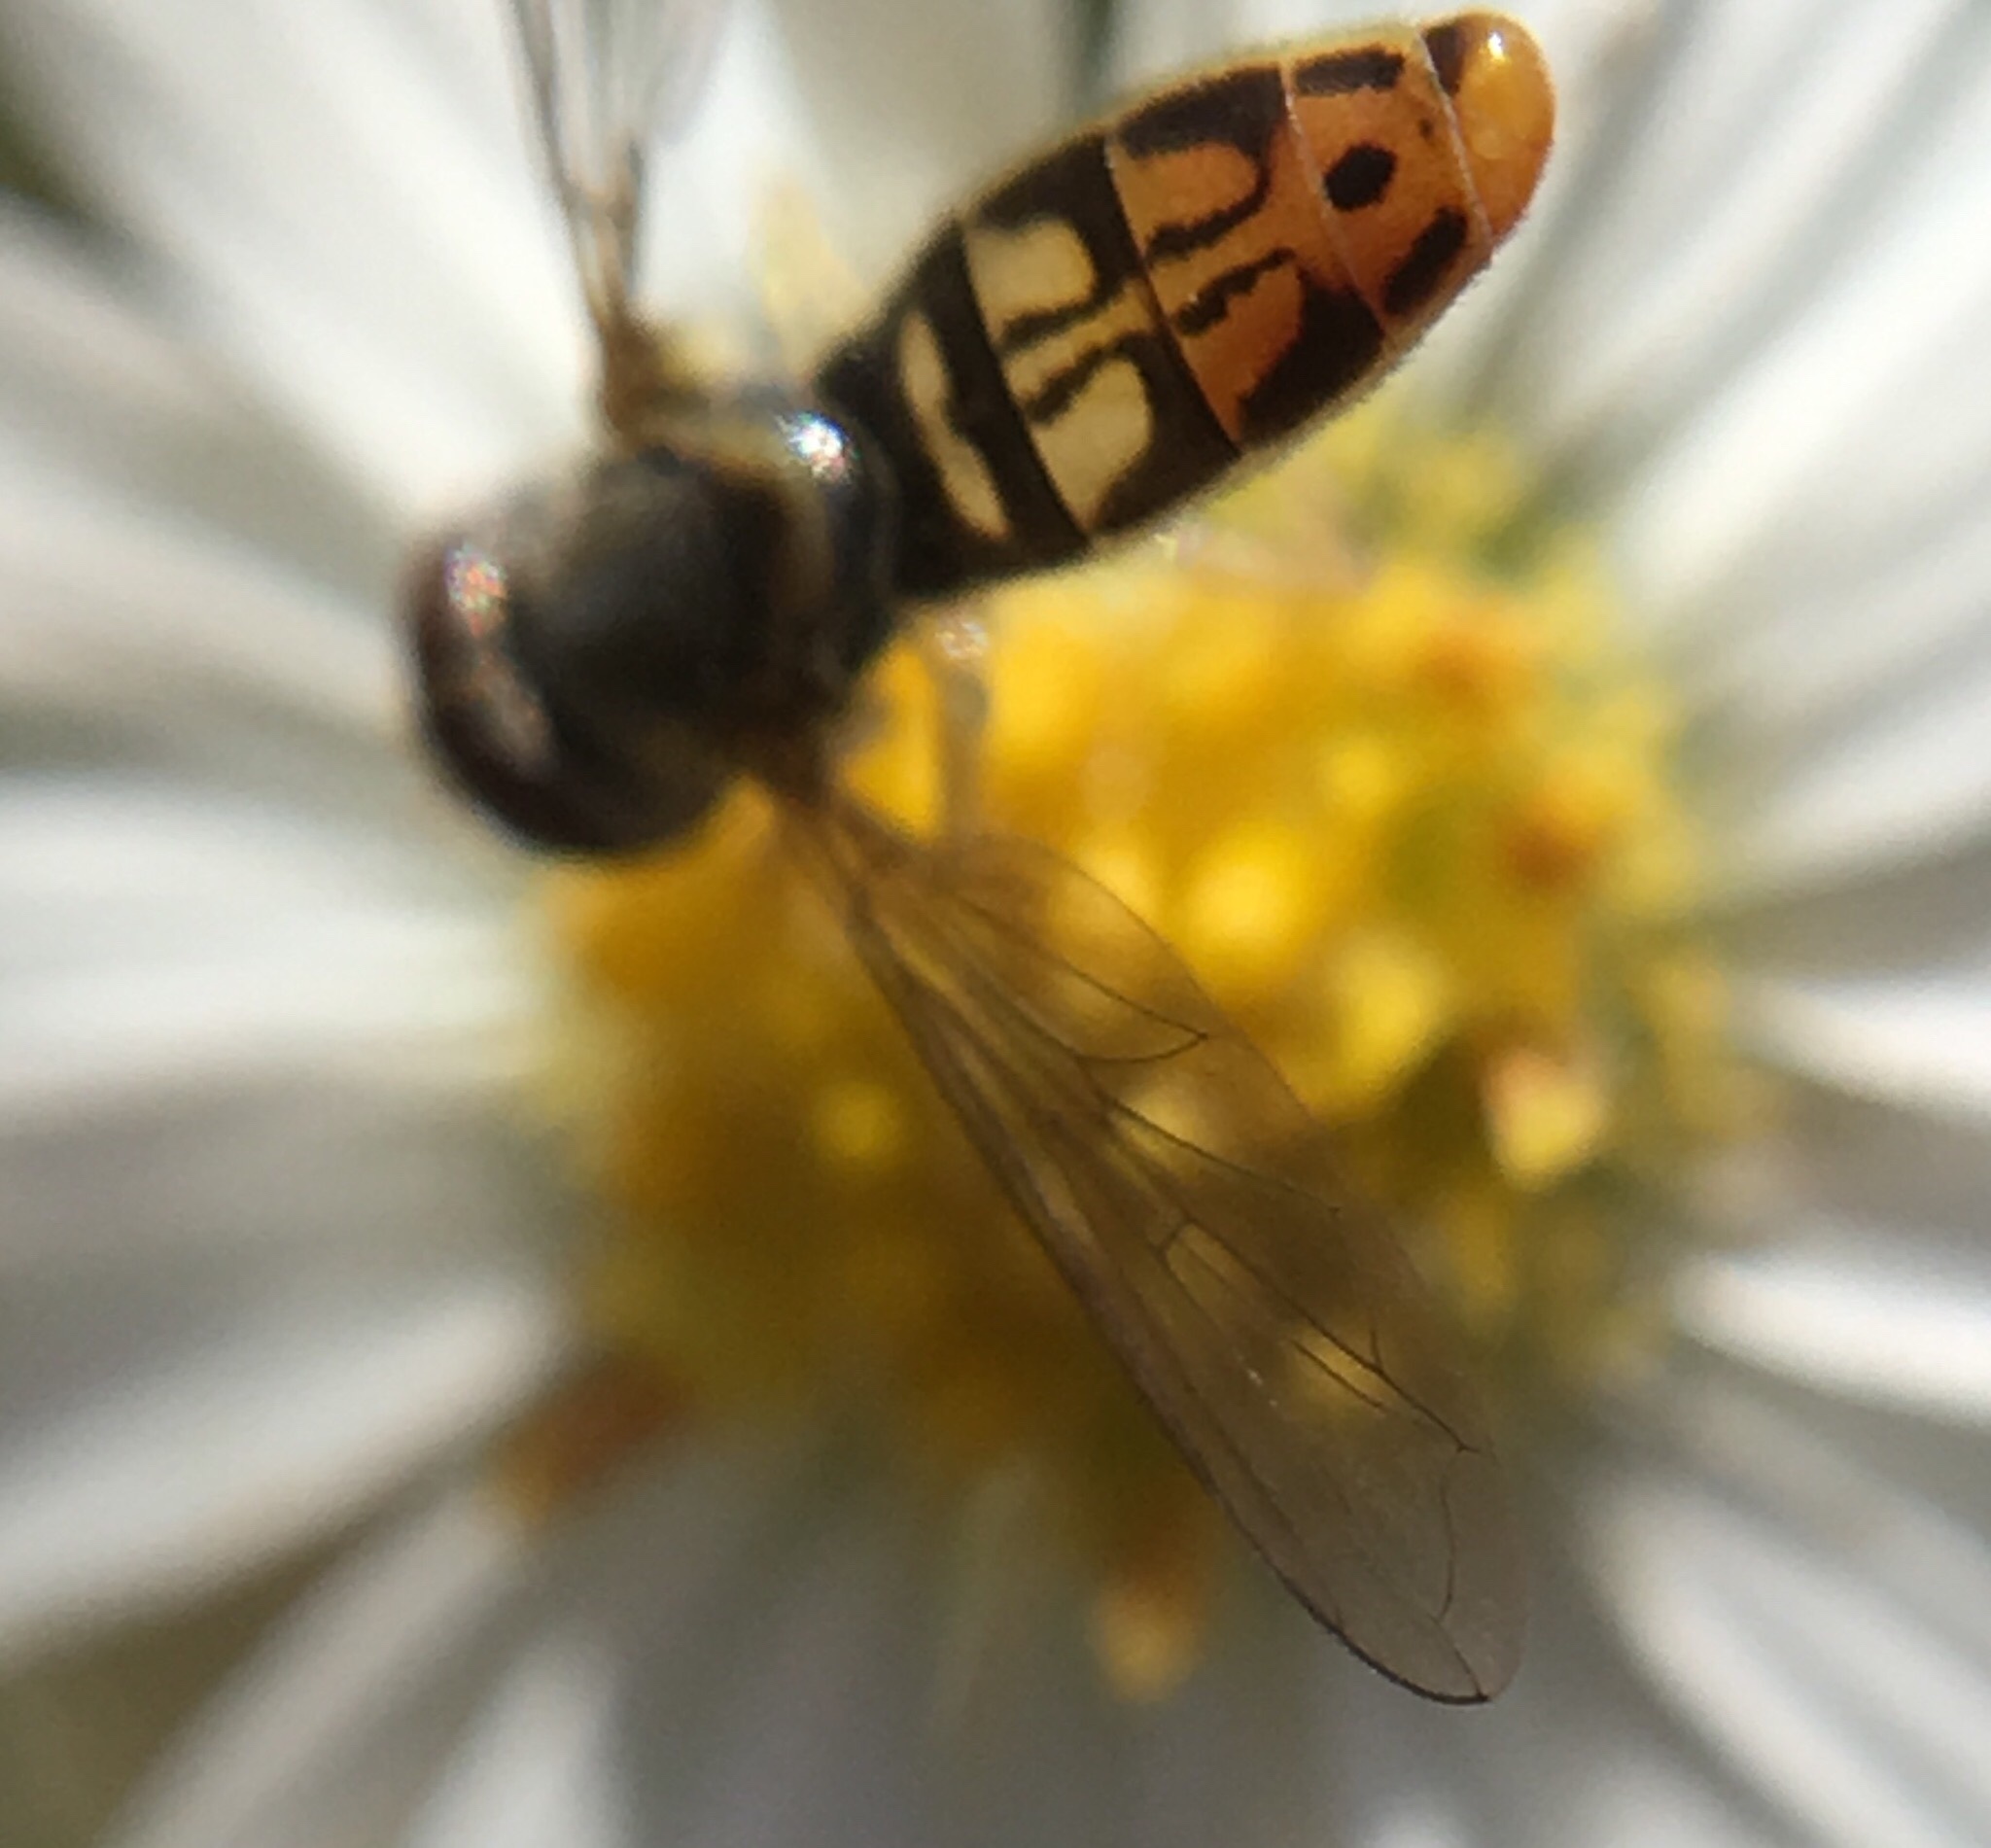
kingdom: Animalia
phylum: Arthropoda
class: Insecta
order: Diptera
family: Syrphidae
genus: Toxomerus
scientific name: Toxomerus marginatus
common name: Syrphid fly
